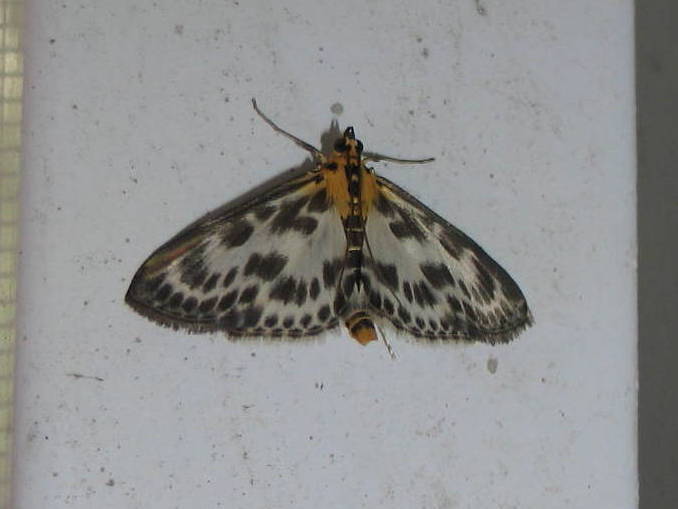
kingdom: Animalia
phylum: Arthropoda
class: Insecta
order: Lepidoptera
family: Crambidae
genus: Anania
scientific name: Anania hortulata
